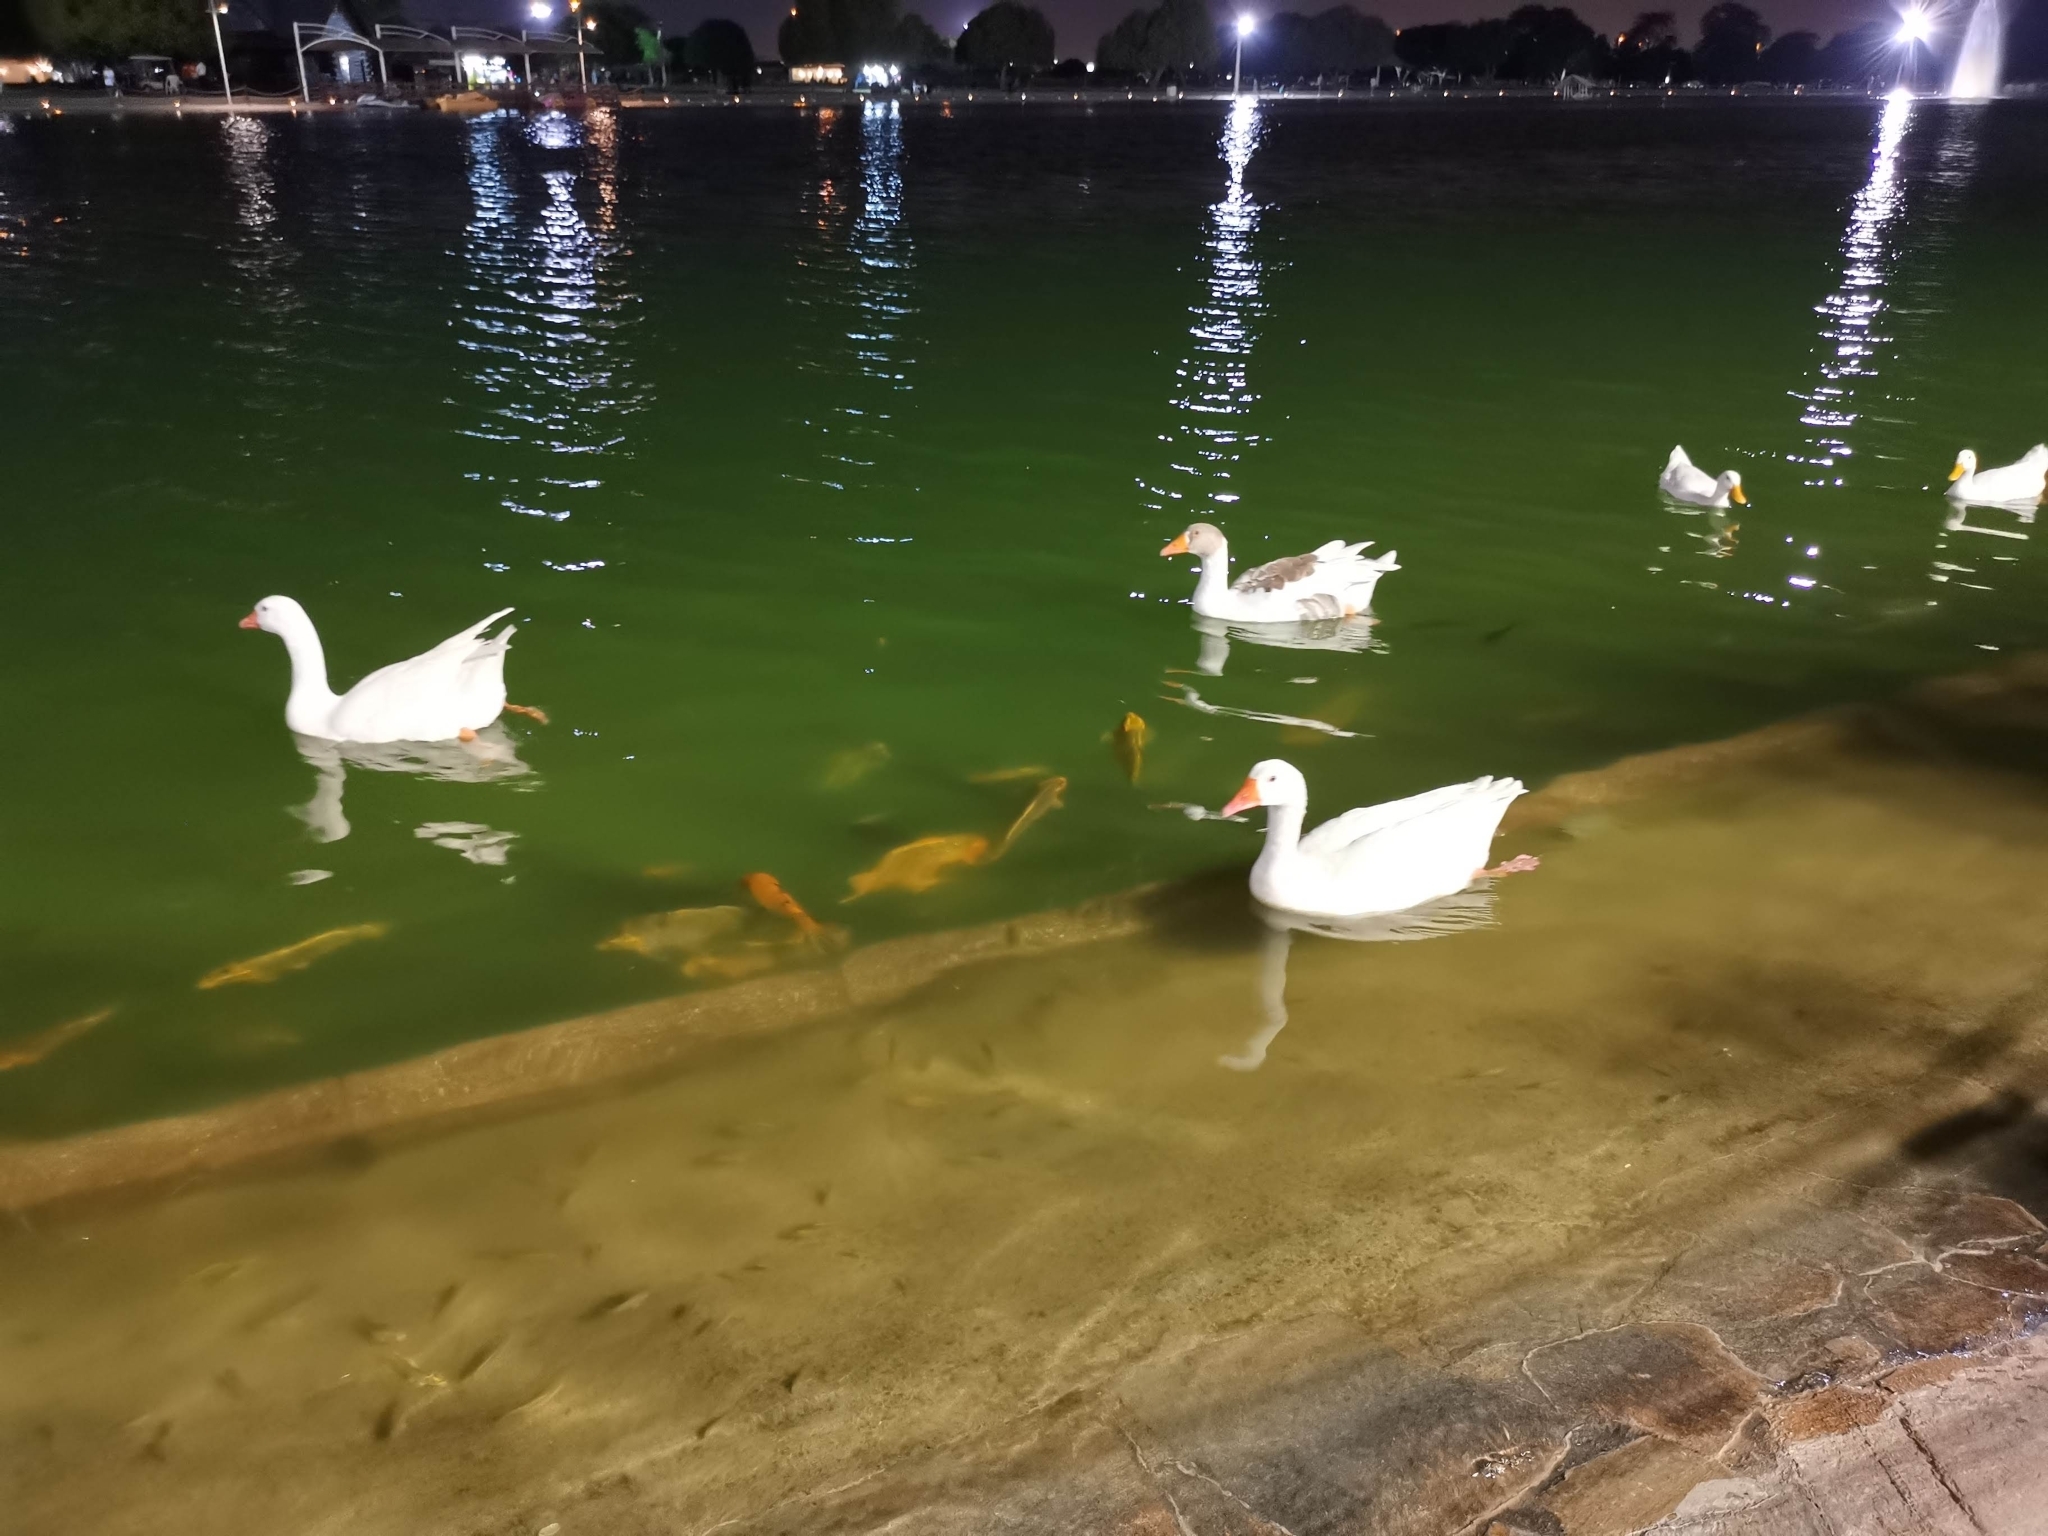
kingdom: Animalia
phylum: Chordata
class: Aves
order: Anseriformes
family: Anatidae
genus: Anser
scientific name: Anser anser
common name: Greylag goose
